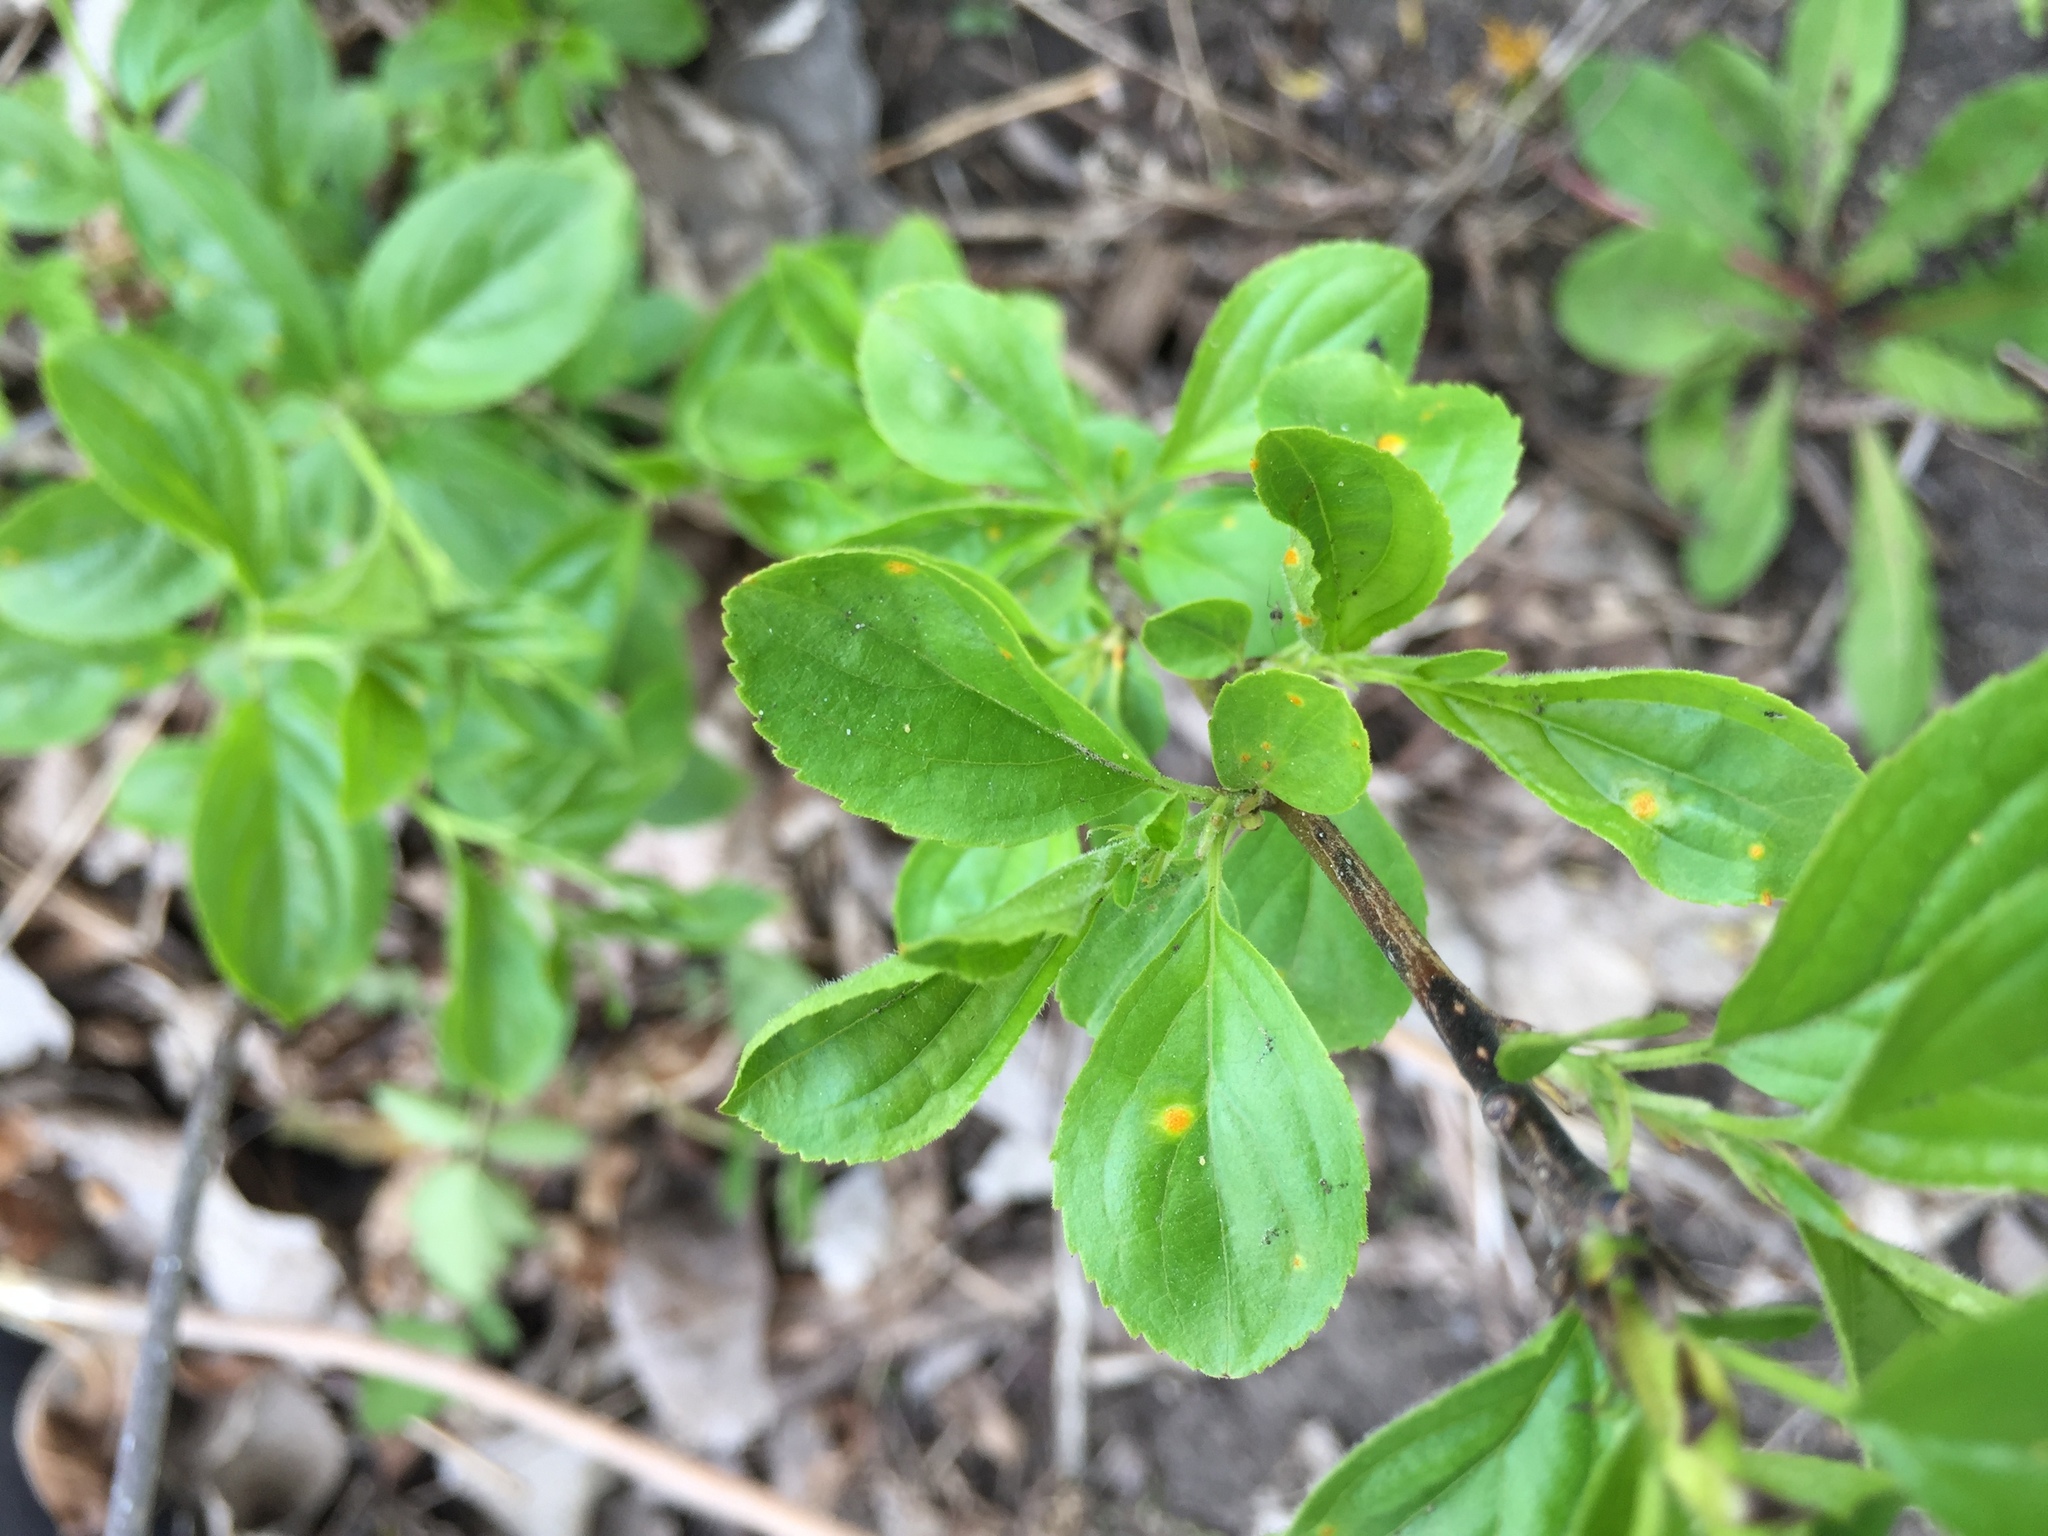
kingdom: Plantae
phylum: Tracheophyta
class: Magnoliopsida
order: Rosales
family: Rhamnaceae
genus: Rhamnus
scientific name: Rhamnus cathartica
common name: Common buckthorn
